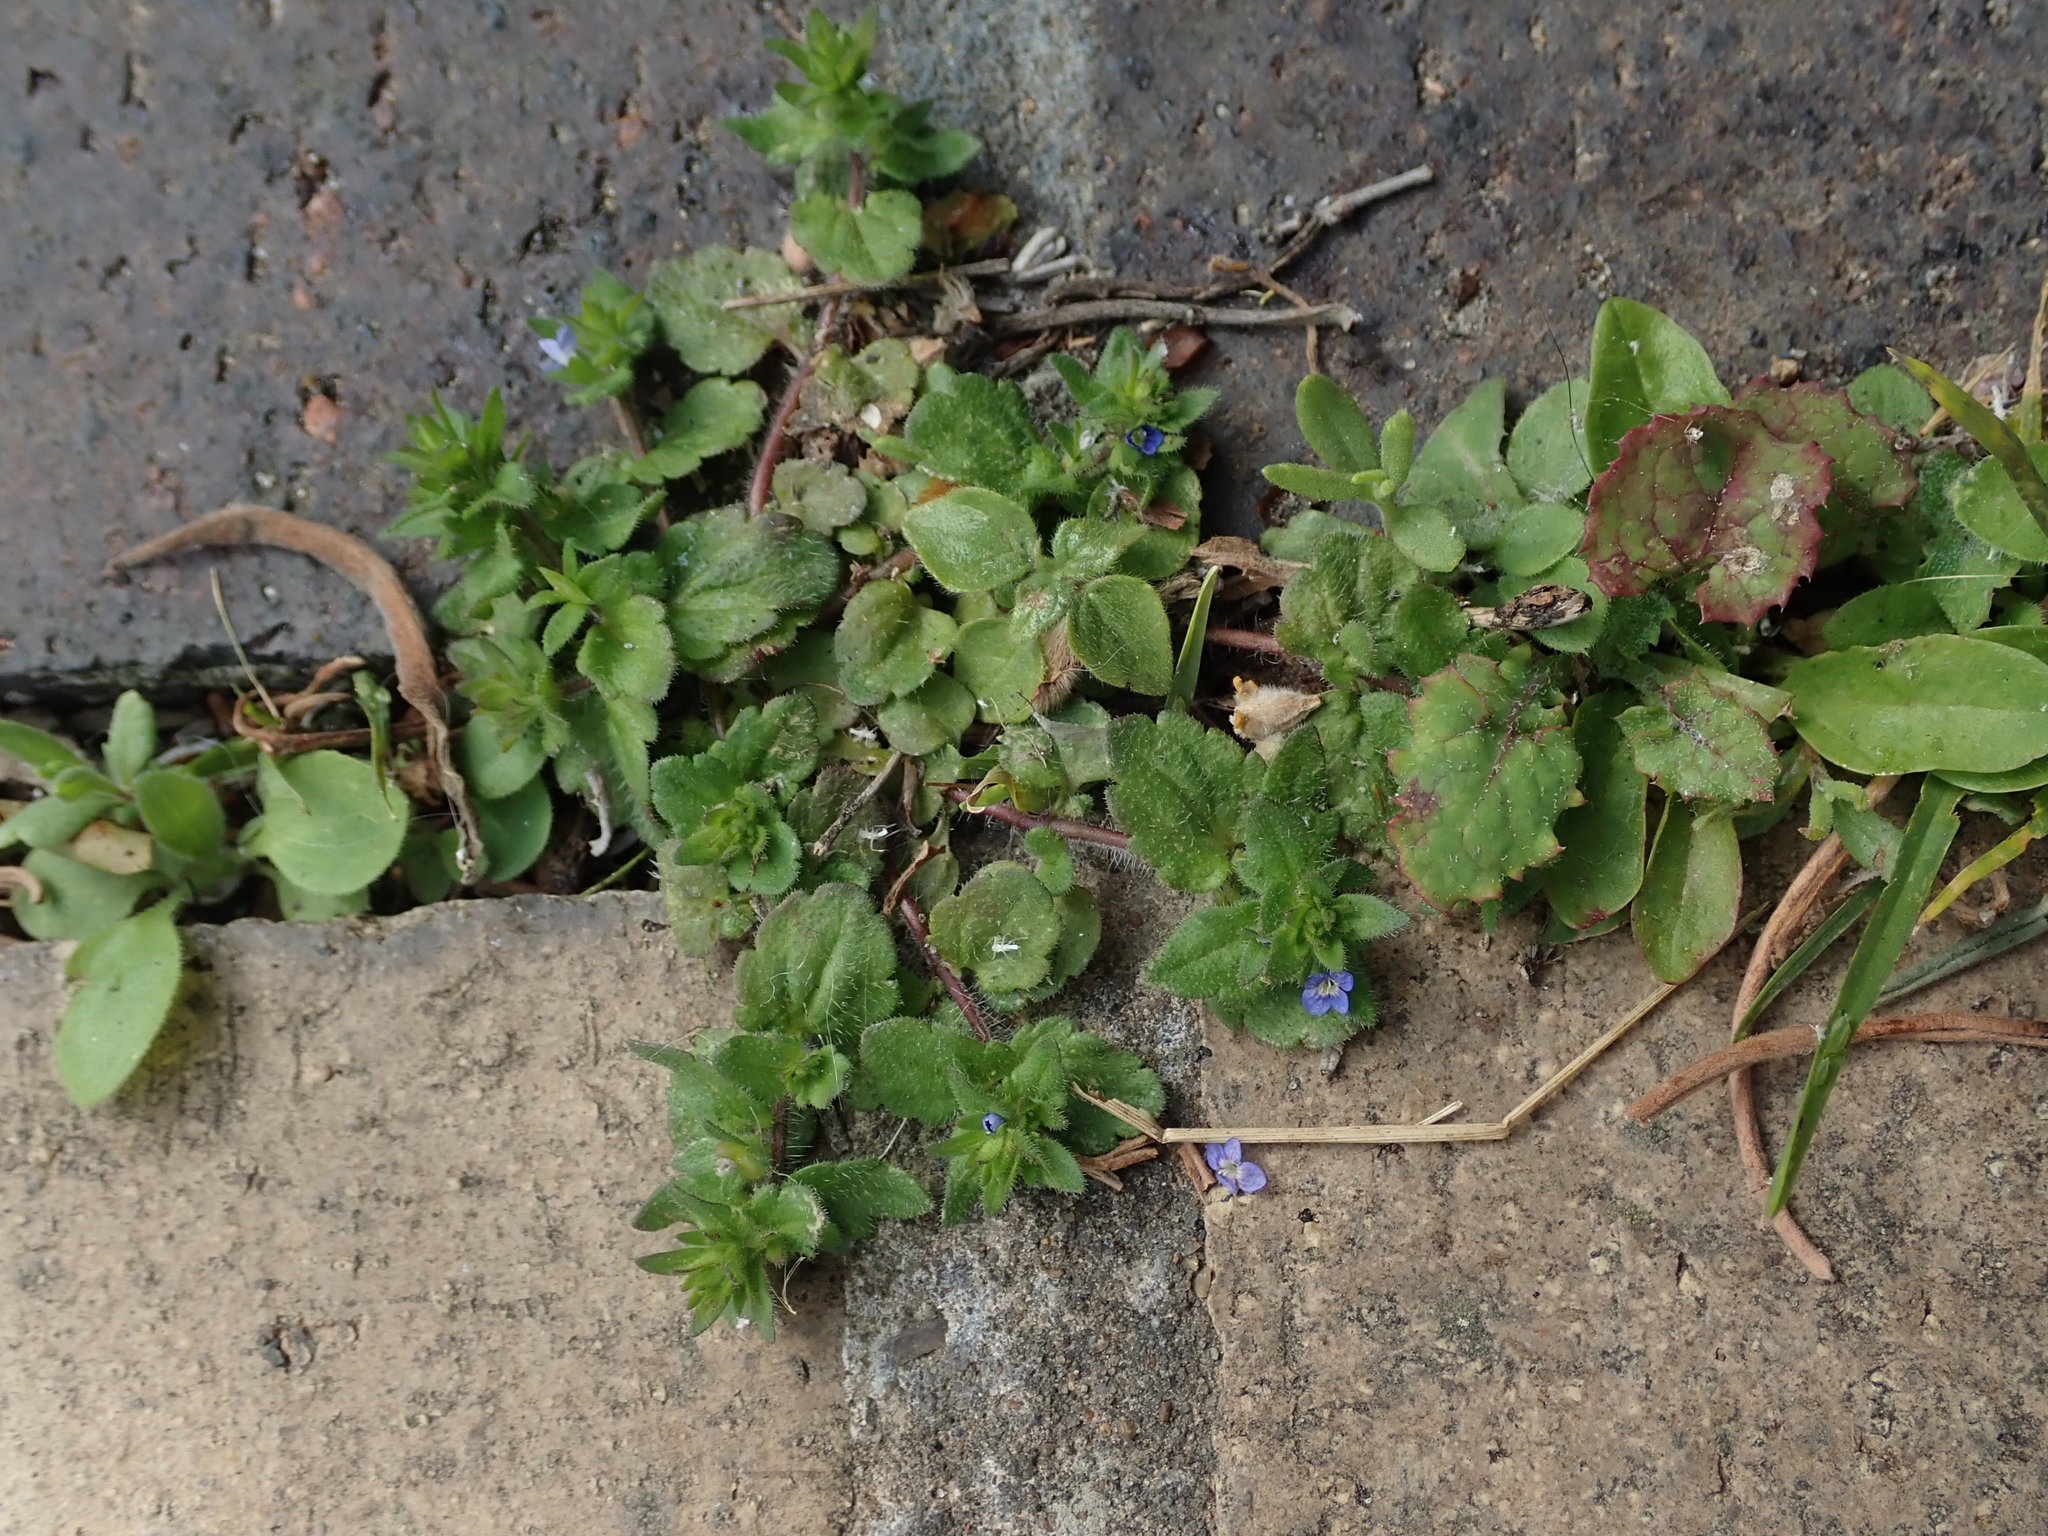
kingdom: Plantae
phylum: Tracheophyta
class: Magnoliopsida
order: Lamiales
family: Plantaginaceae
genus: Veronica
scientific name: Veronica arvensis
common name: Corn speedwell
